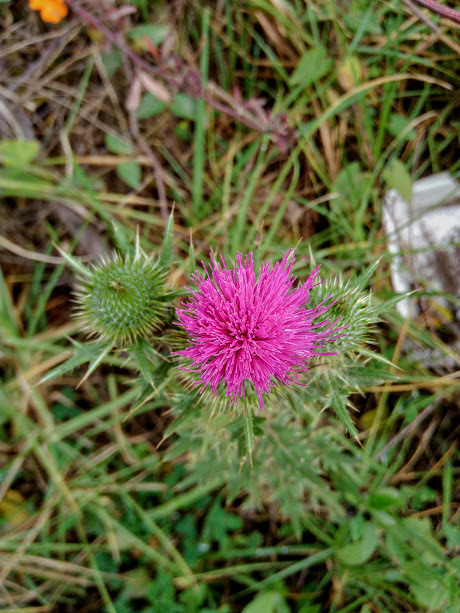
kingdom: Plantae
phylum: Tracheophyta
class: Magnoliopsida
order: Asterales
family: Asteraceae
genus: Cirsium
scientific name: Cirsium vulgare
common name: Bull thistle
